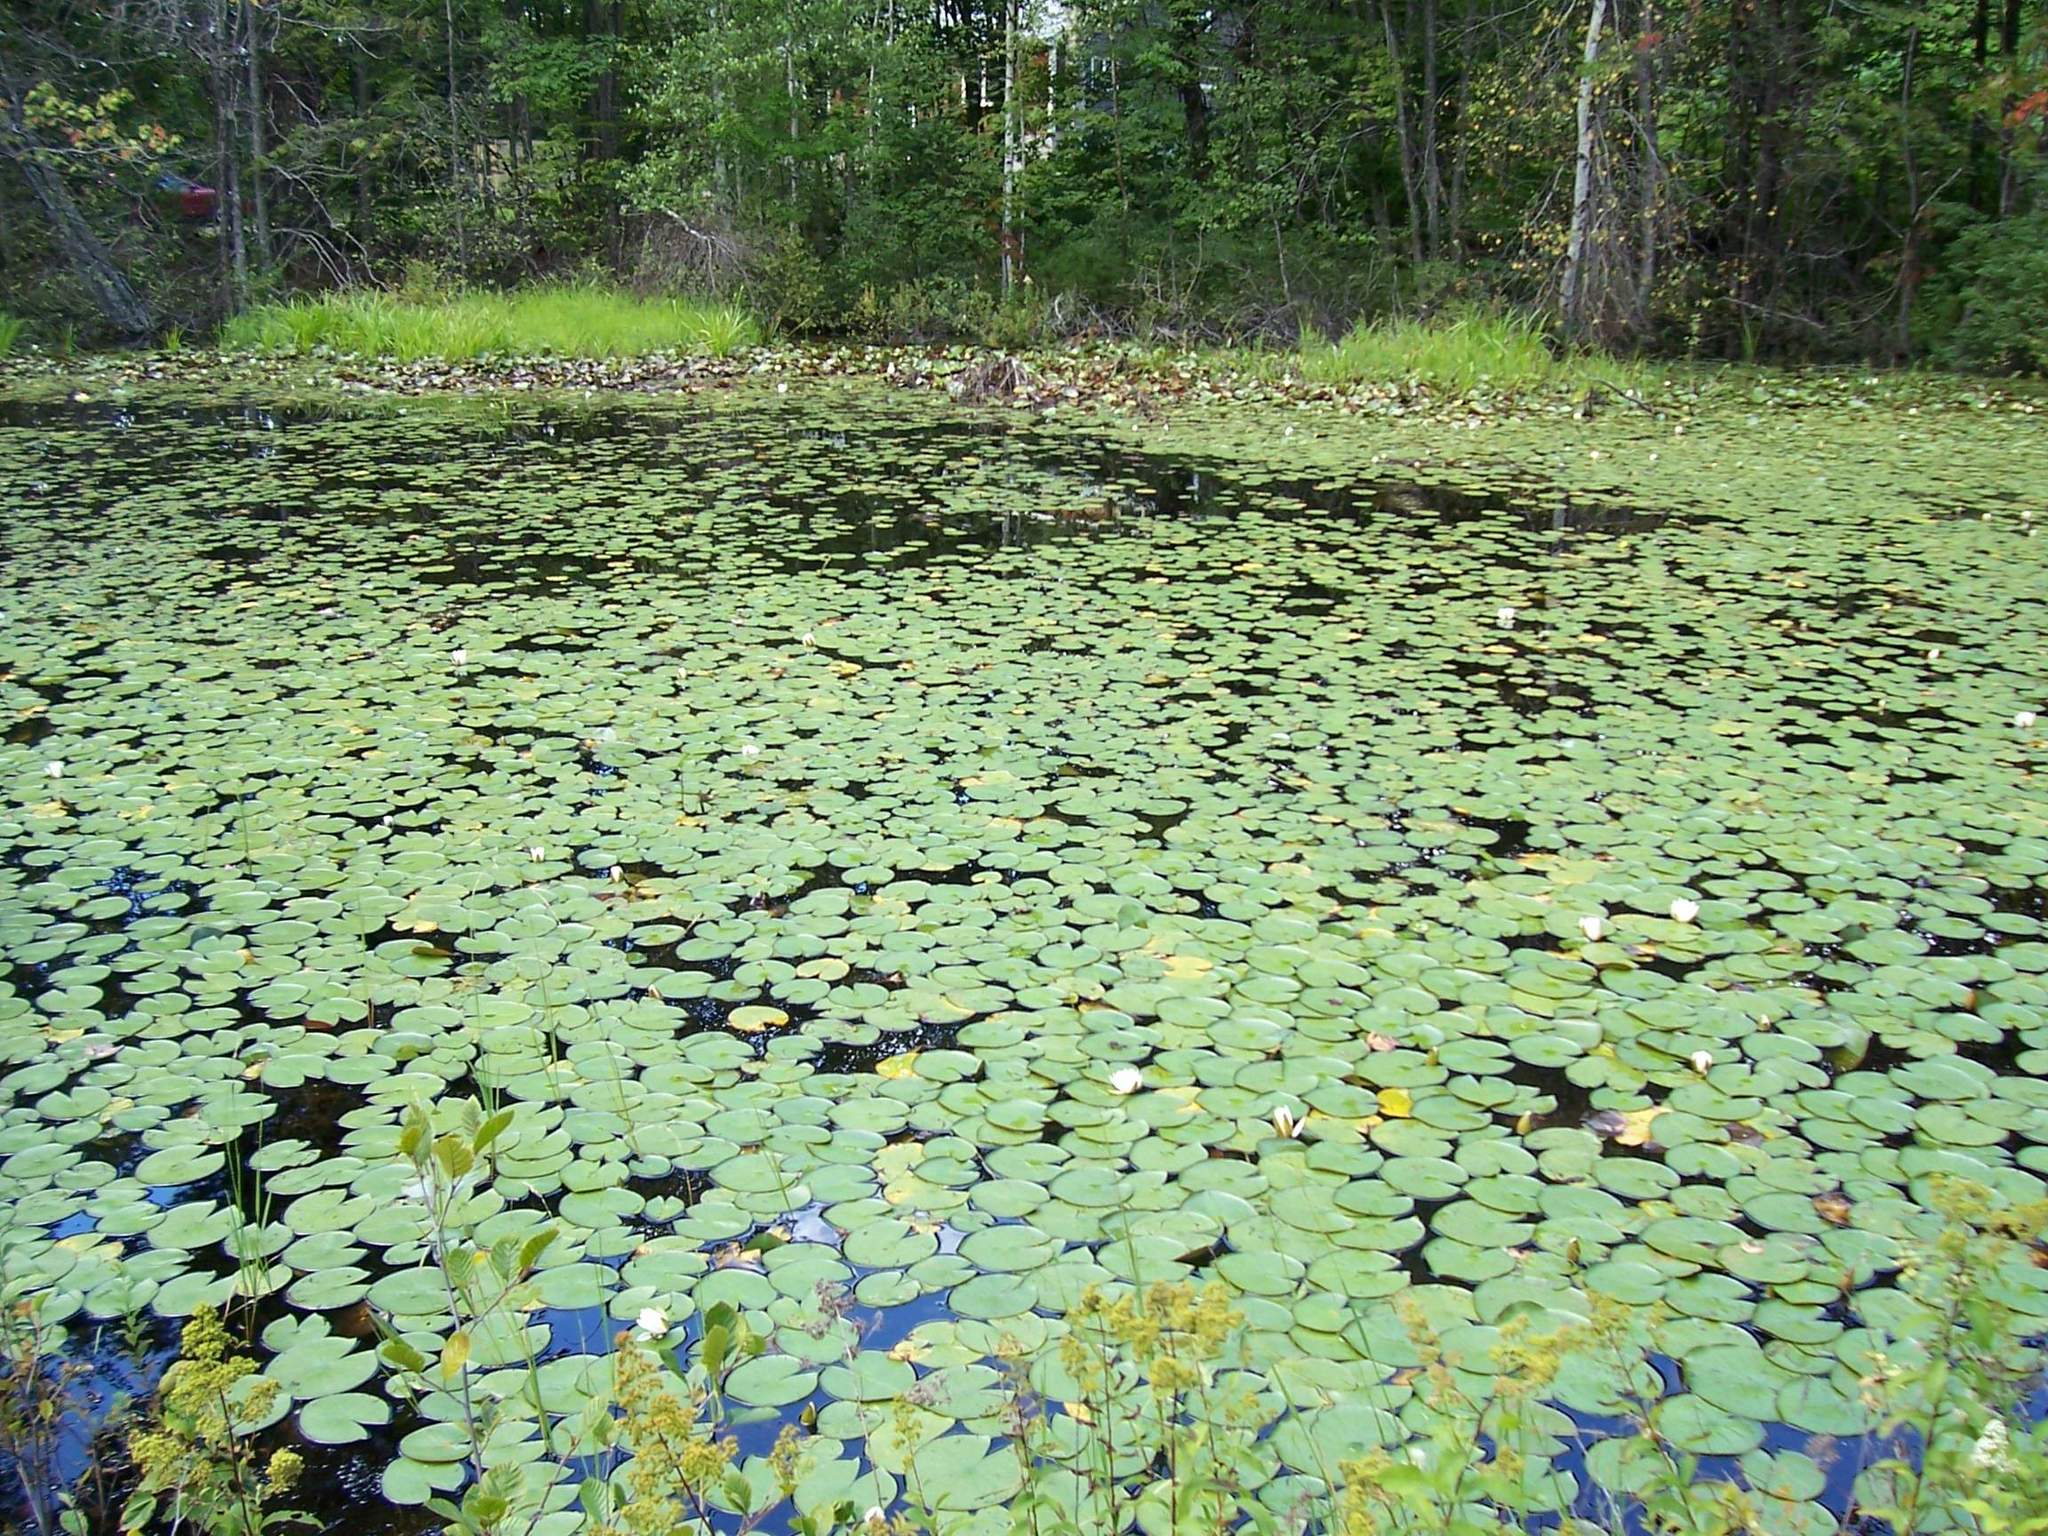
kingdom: Plantae
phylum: Tracheophyta
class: Magnoliopsida
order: Nymphaeales
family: Nymphaeaceae
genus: Nymphaea
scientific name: Nymphaea odorata
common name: Fragrant water-lily
